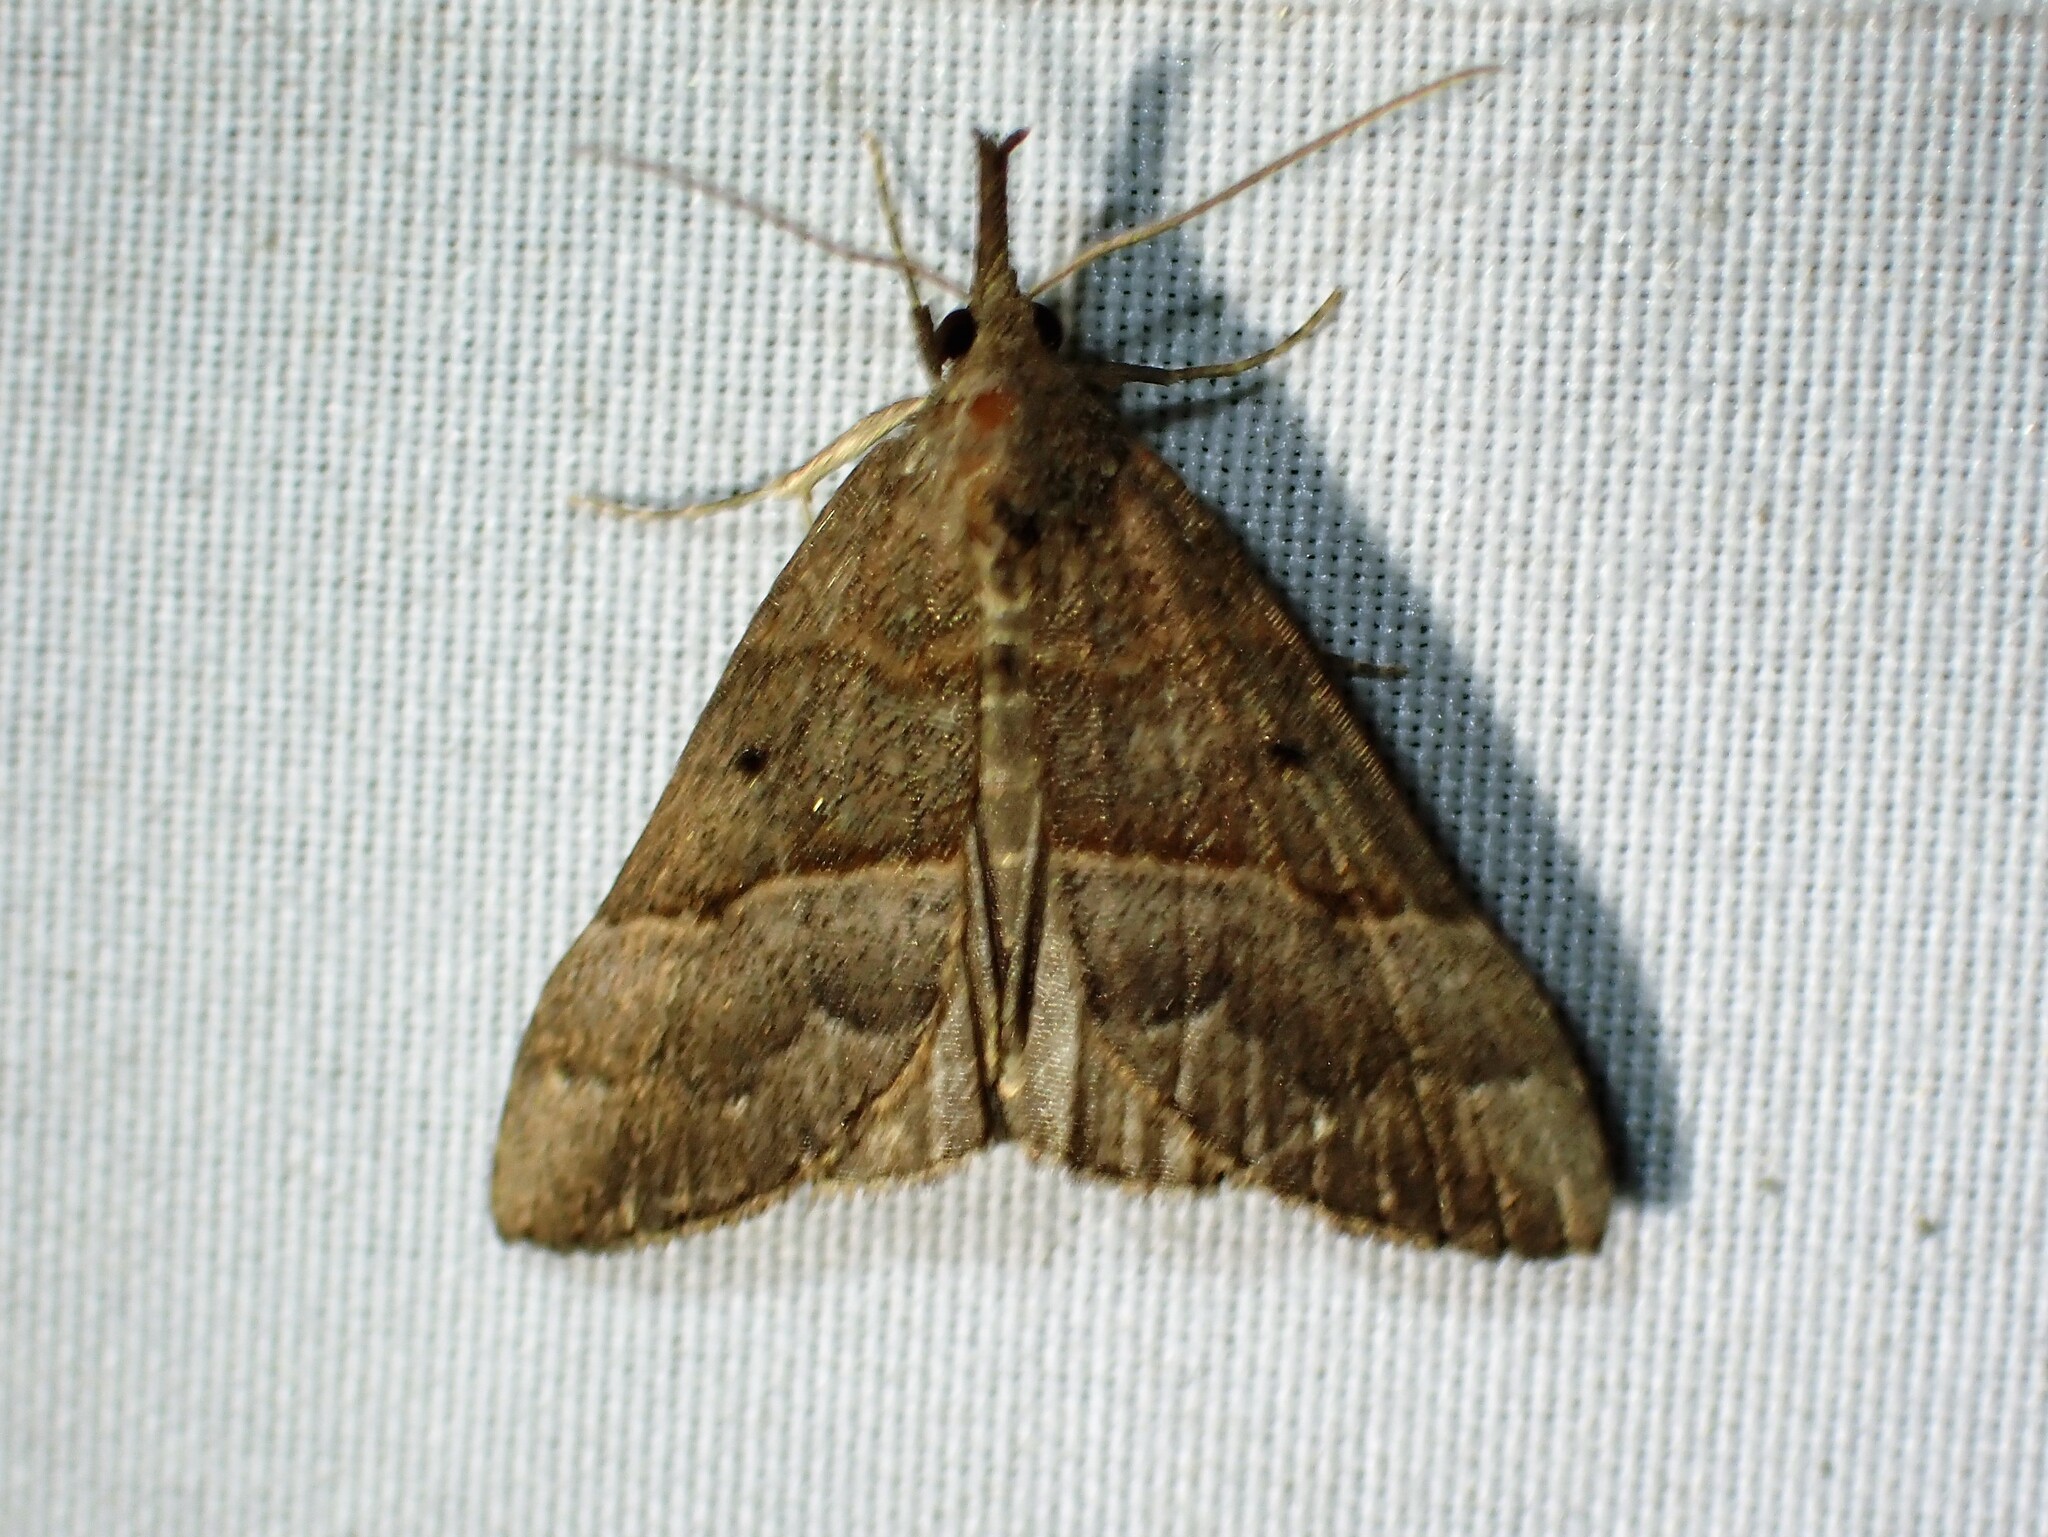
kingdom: Animalia
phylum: Arthropoda
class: Insecta
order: Lepidoptera
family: Erebidae
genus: Hypena
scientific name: Hypena eductalis
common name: Red-footed snout
